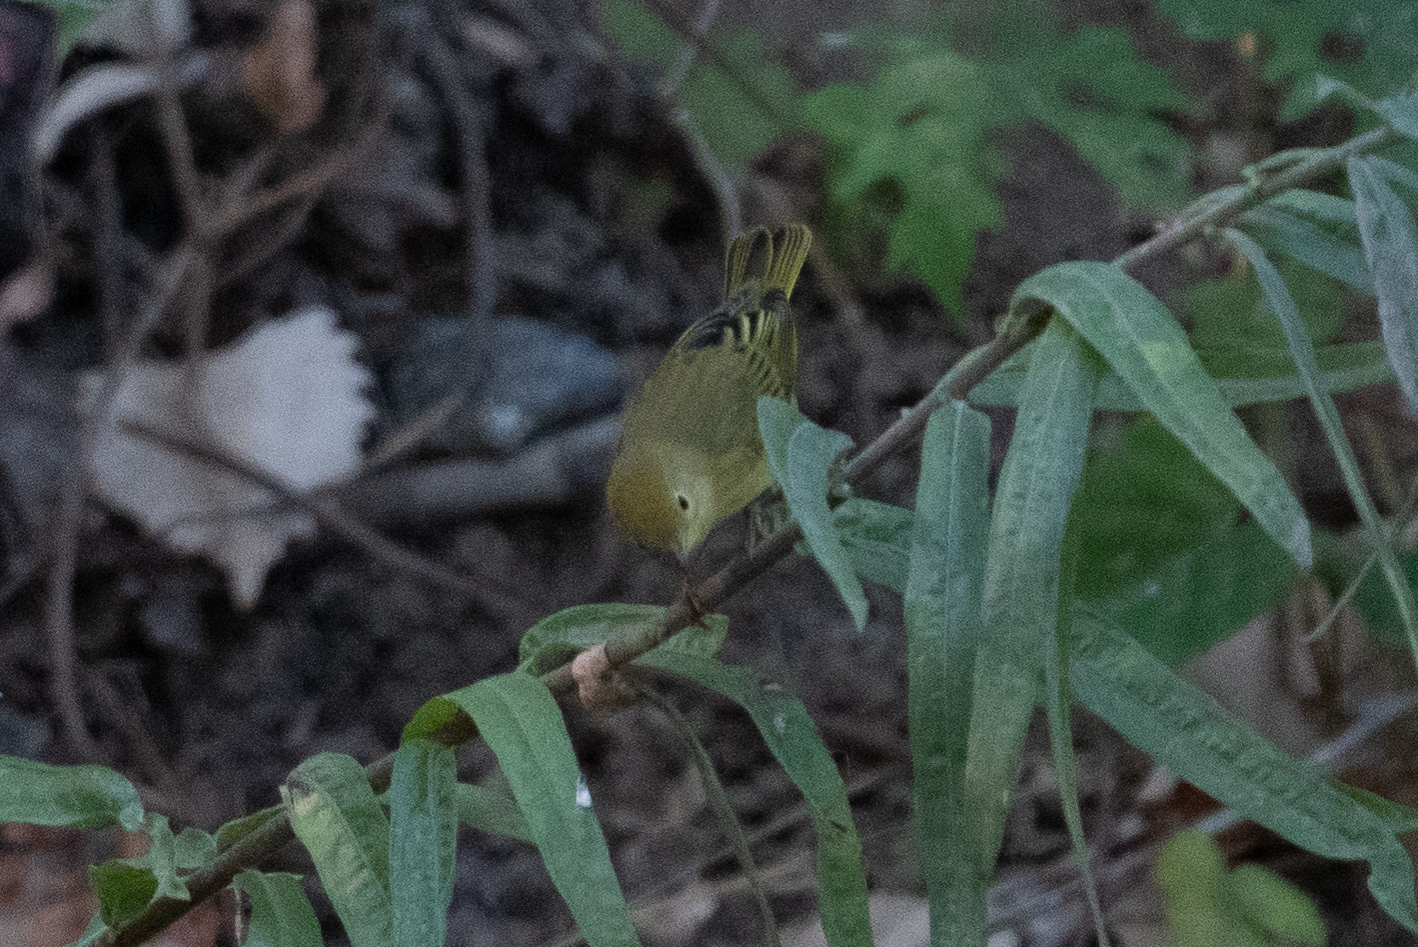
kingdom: Animalia
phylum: Chordata
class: Aves
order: Passeriformes
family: Parulidae
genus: Setophaga
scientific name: Setophaga petechia
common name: Yellow warbler
